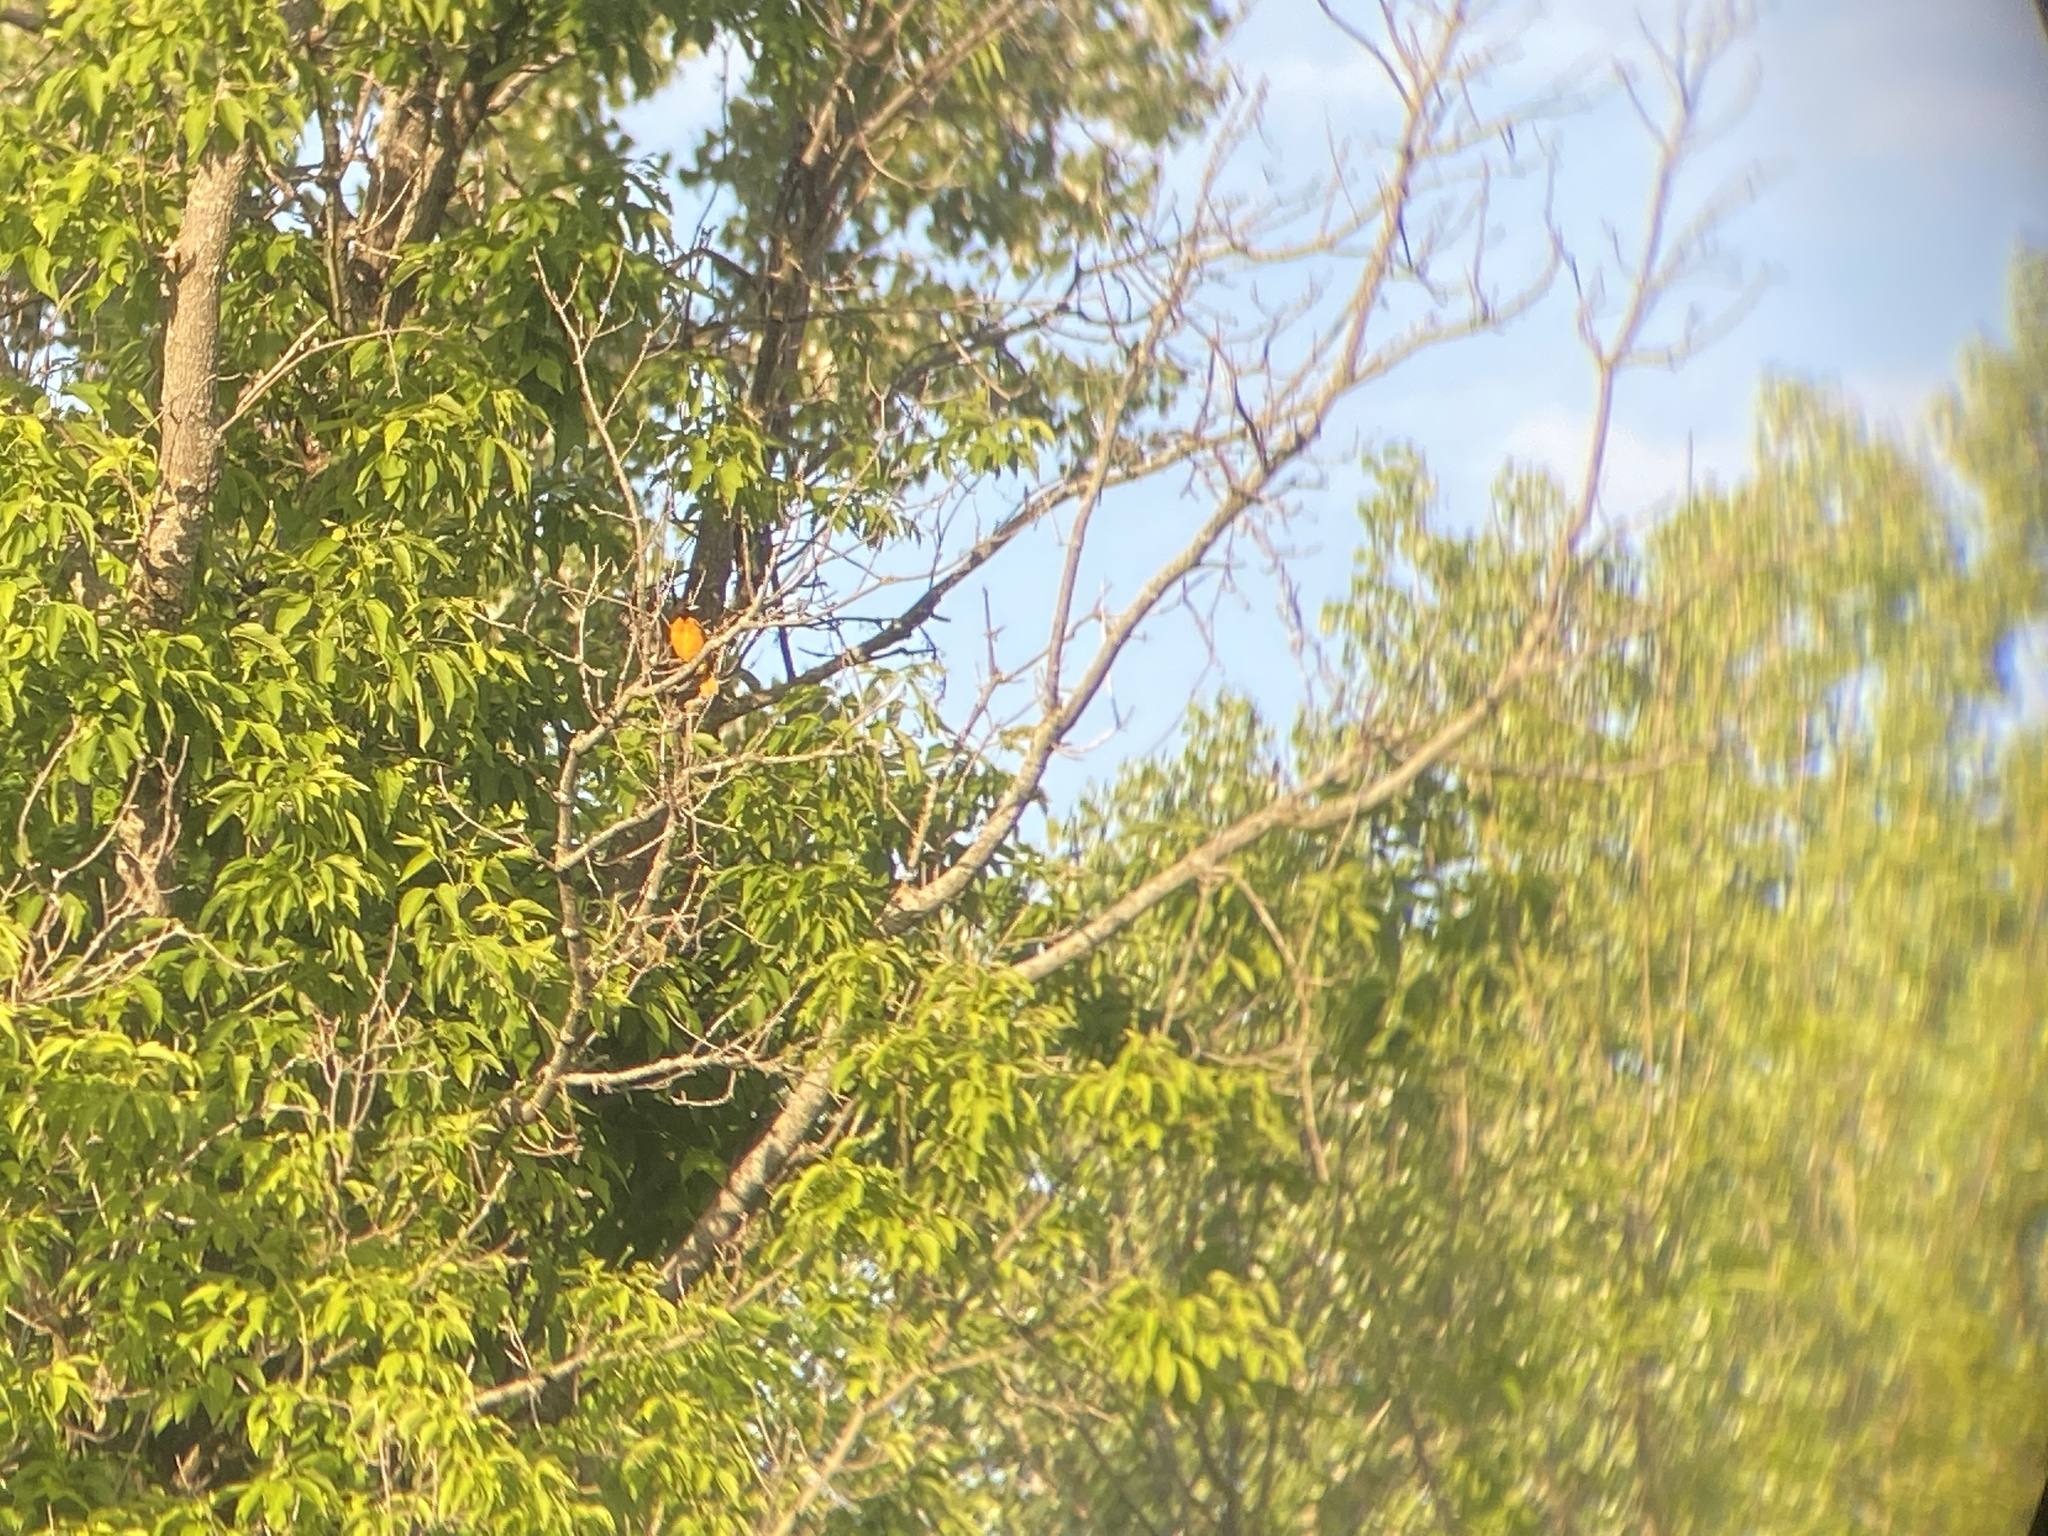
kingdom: Animalia
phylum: Chordata
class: Aves
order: Passeriformes
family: Icteridae
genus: Icterus
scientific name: Icterus galbula
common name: Baltimore oriole
